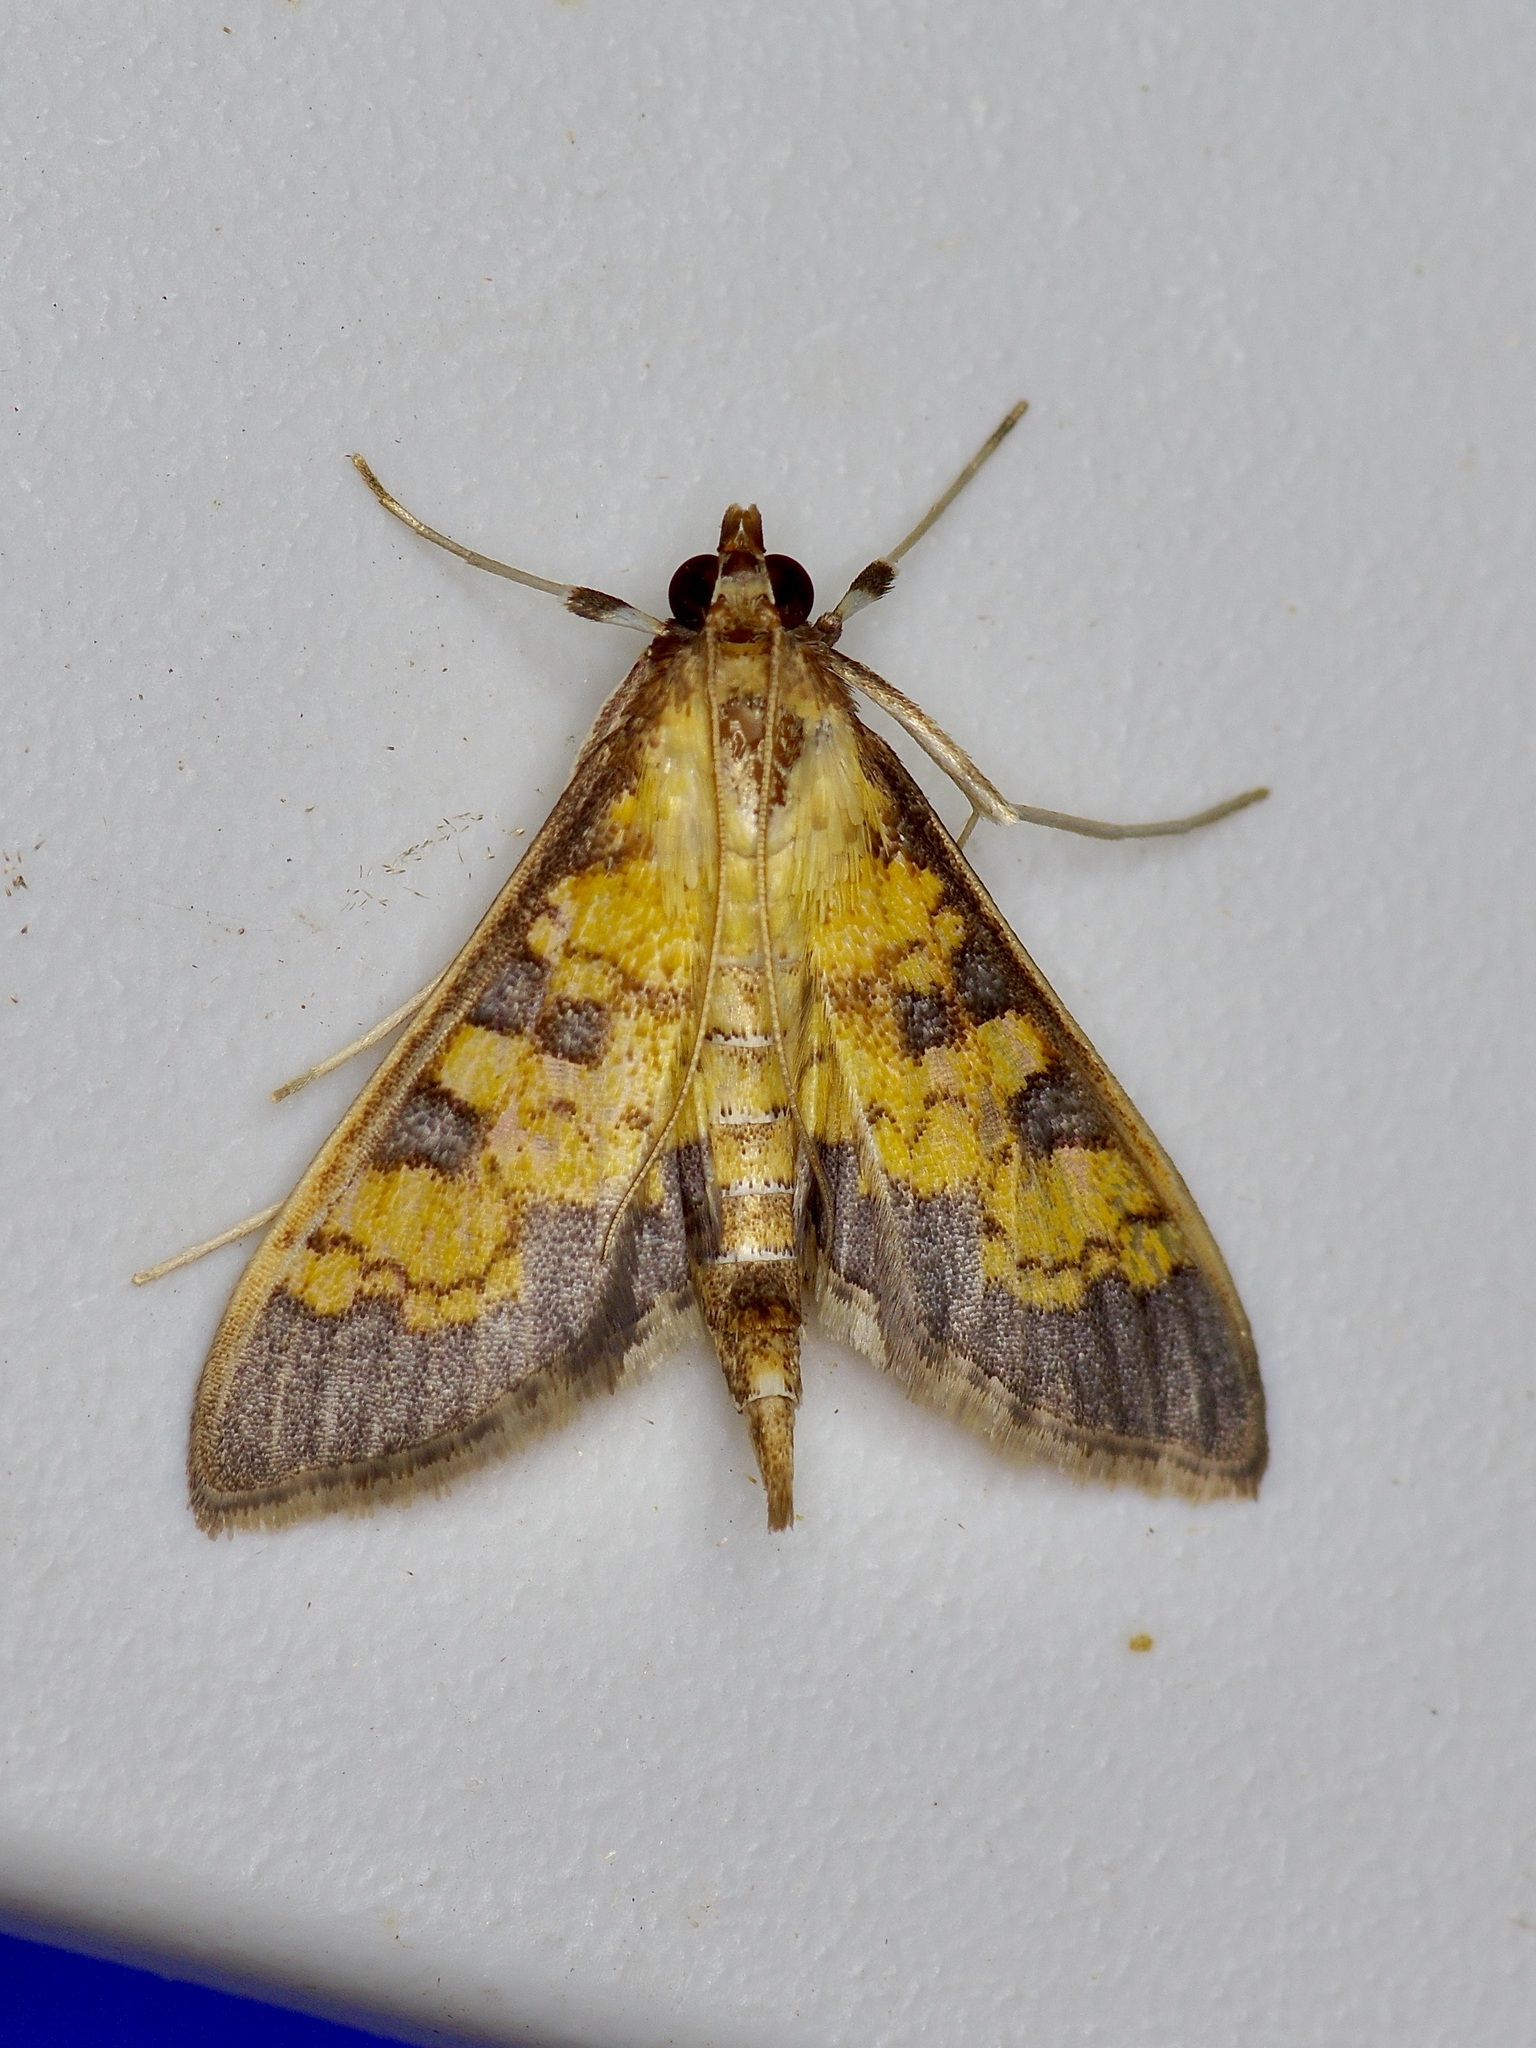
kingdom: Animalia
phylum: Arthropoda
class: Insecta
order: Lepidoptera
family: Crambidae
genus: Cryptographis
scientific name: Cryptographis elealis
